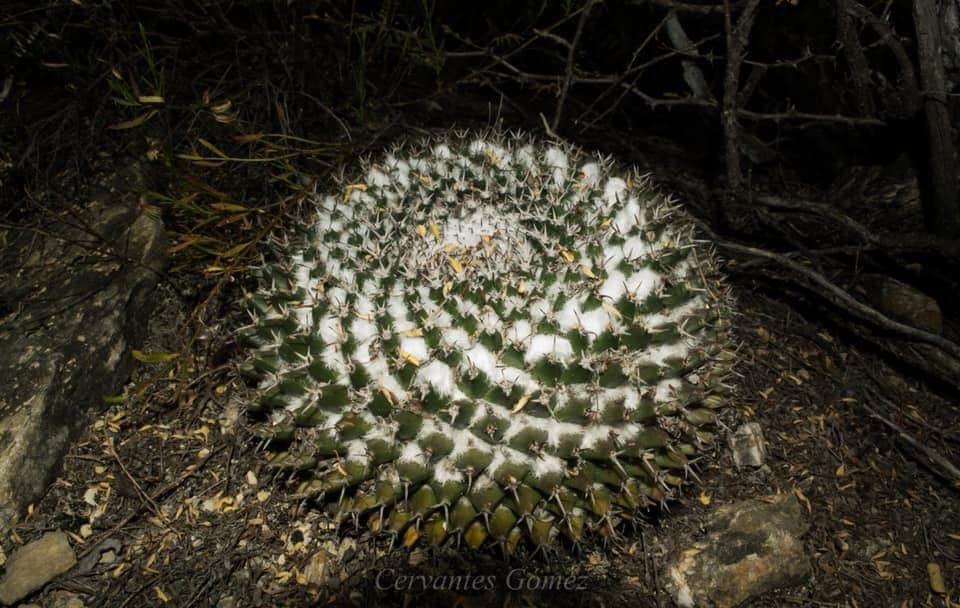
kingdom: Plantae
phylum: Tracheophyta
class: Magnoliopsida
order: Caryophyllales
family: Cactaceae
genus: Mammillaria
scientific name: Mammillaria sempervivi
